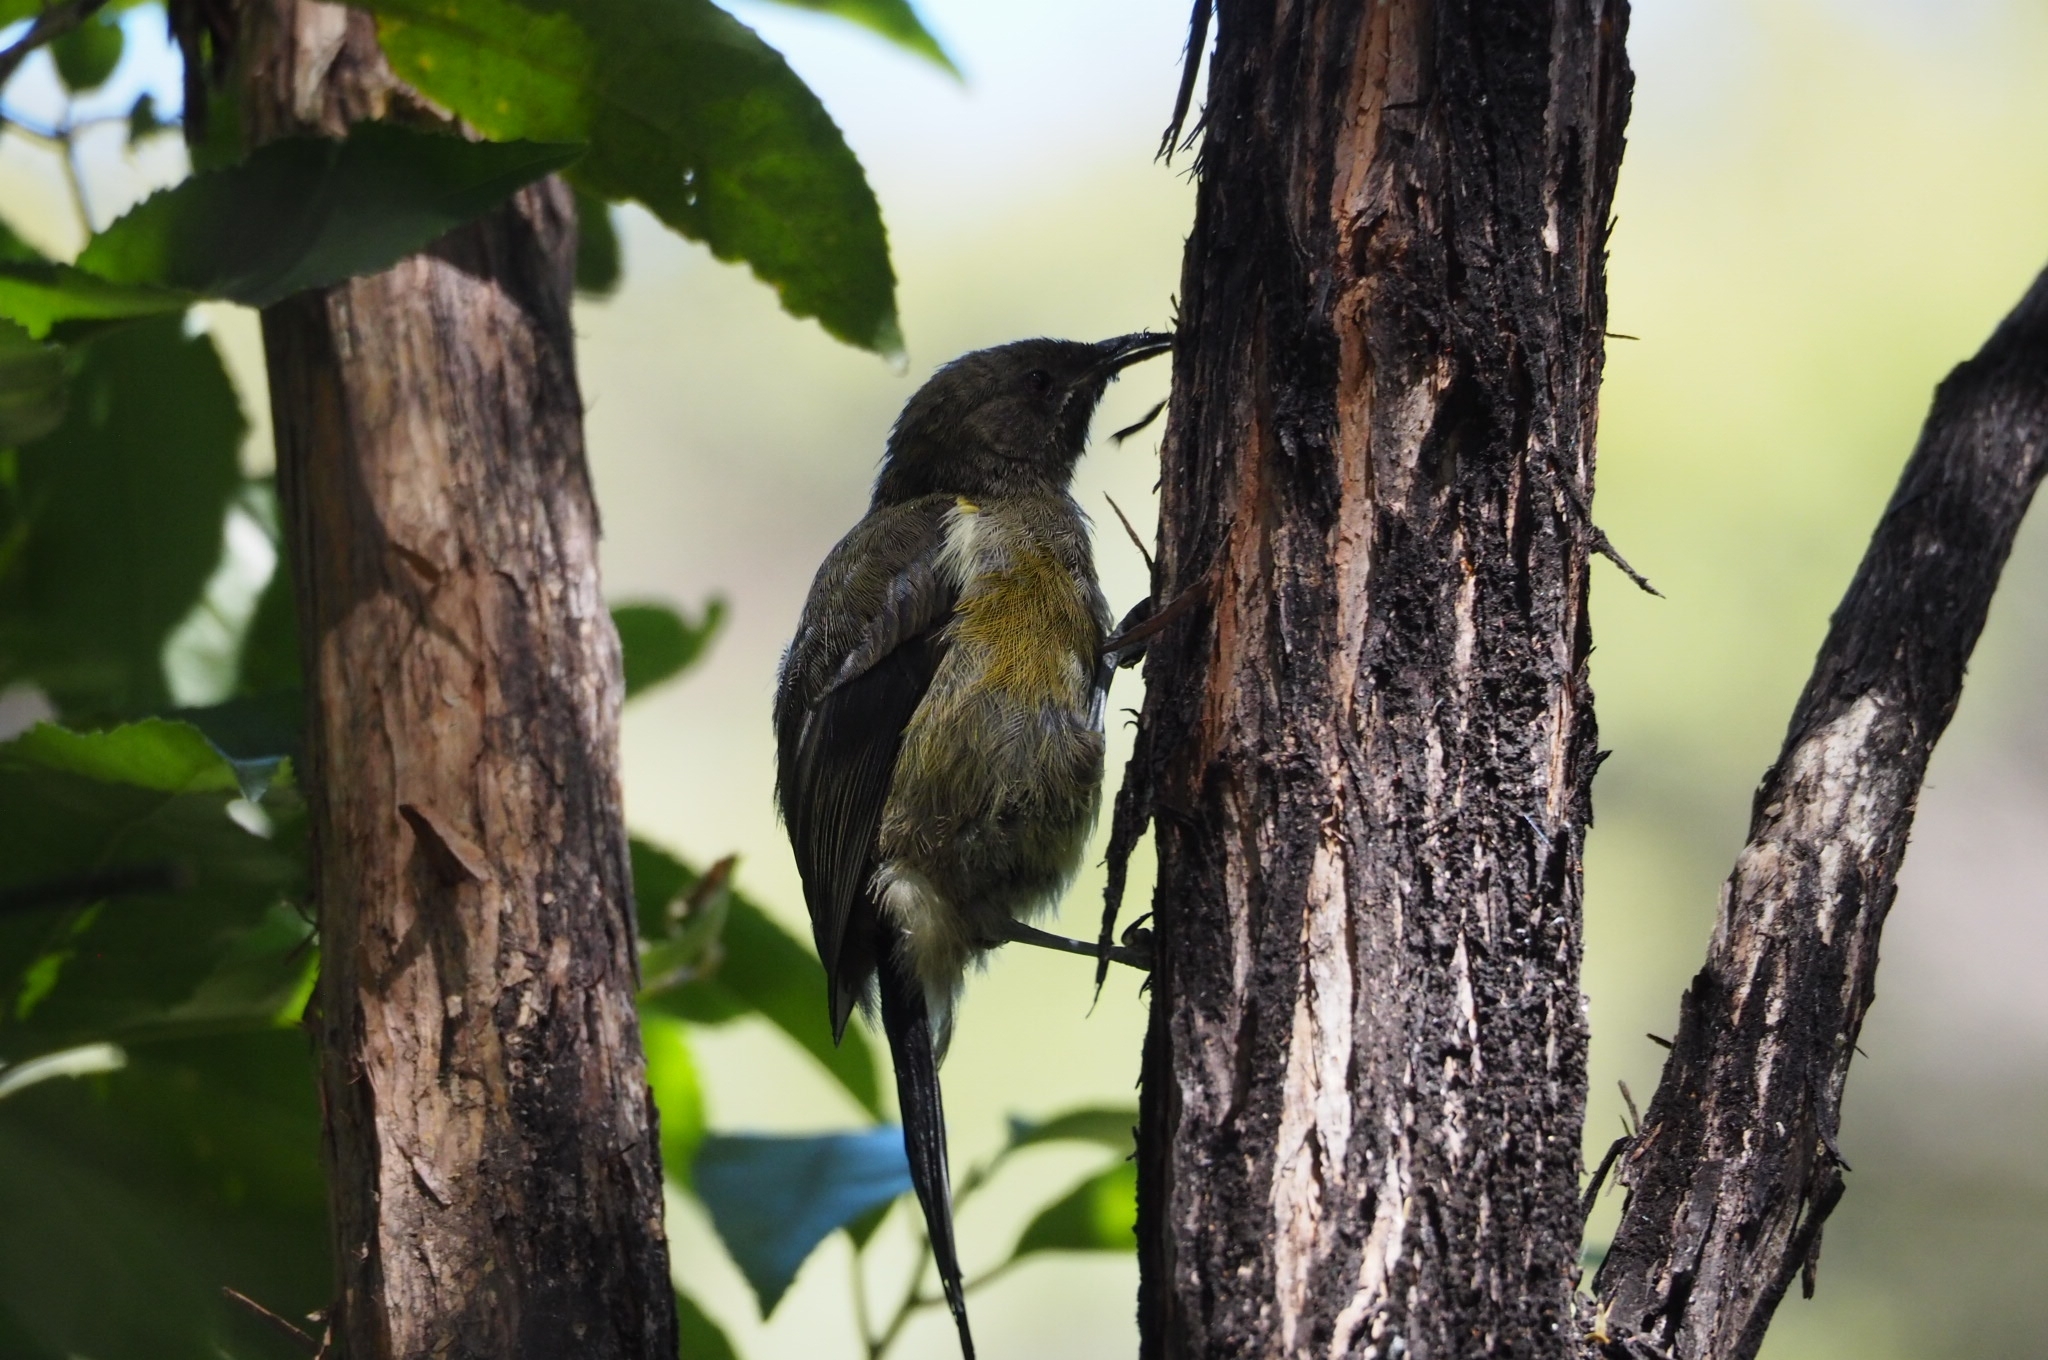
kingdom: Animalia
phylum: Chordata
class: Aves
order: Passeriformes
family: Meliphagidae
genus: Anthornis
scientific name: Anthornis melanura
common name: New zealand bellbird
